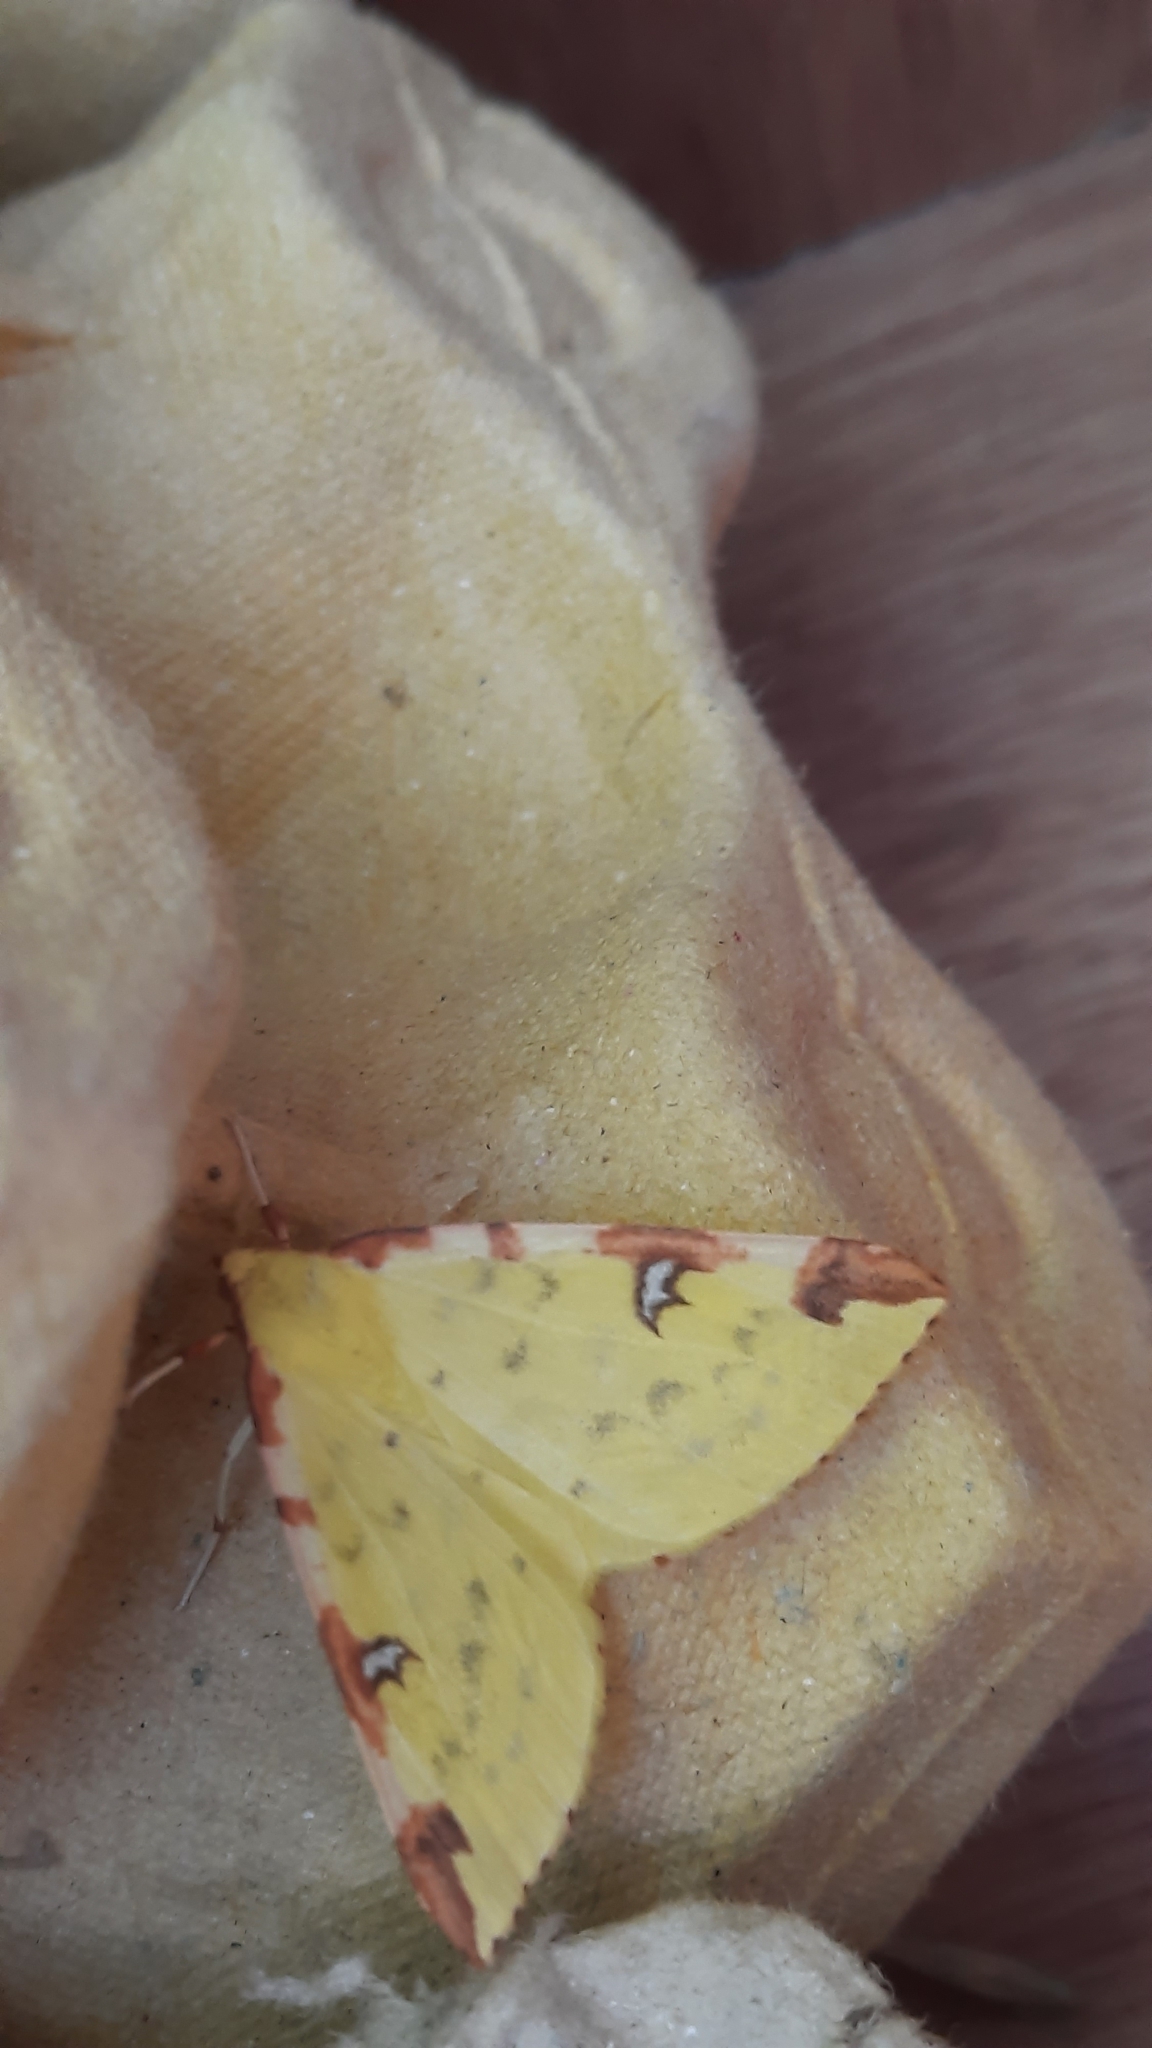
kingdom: Animalia
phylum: Arthropoda
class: Insecta
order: Lepidoptera
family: Geometridae
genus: Opisthograptis
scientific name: Opisthograptis luteolata
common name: Brimstone moth
